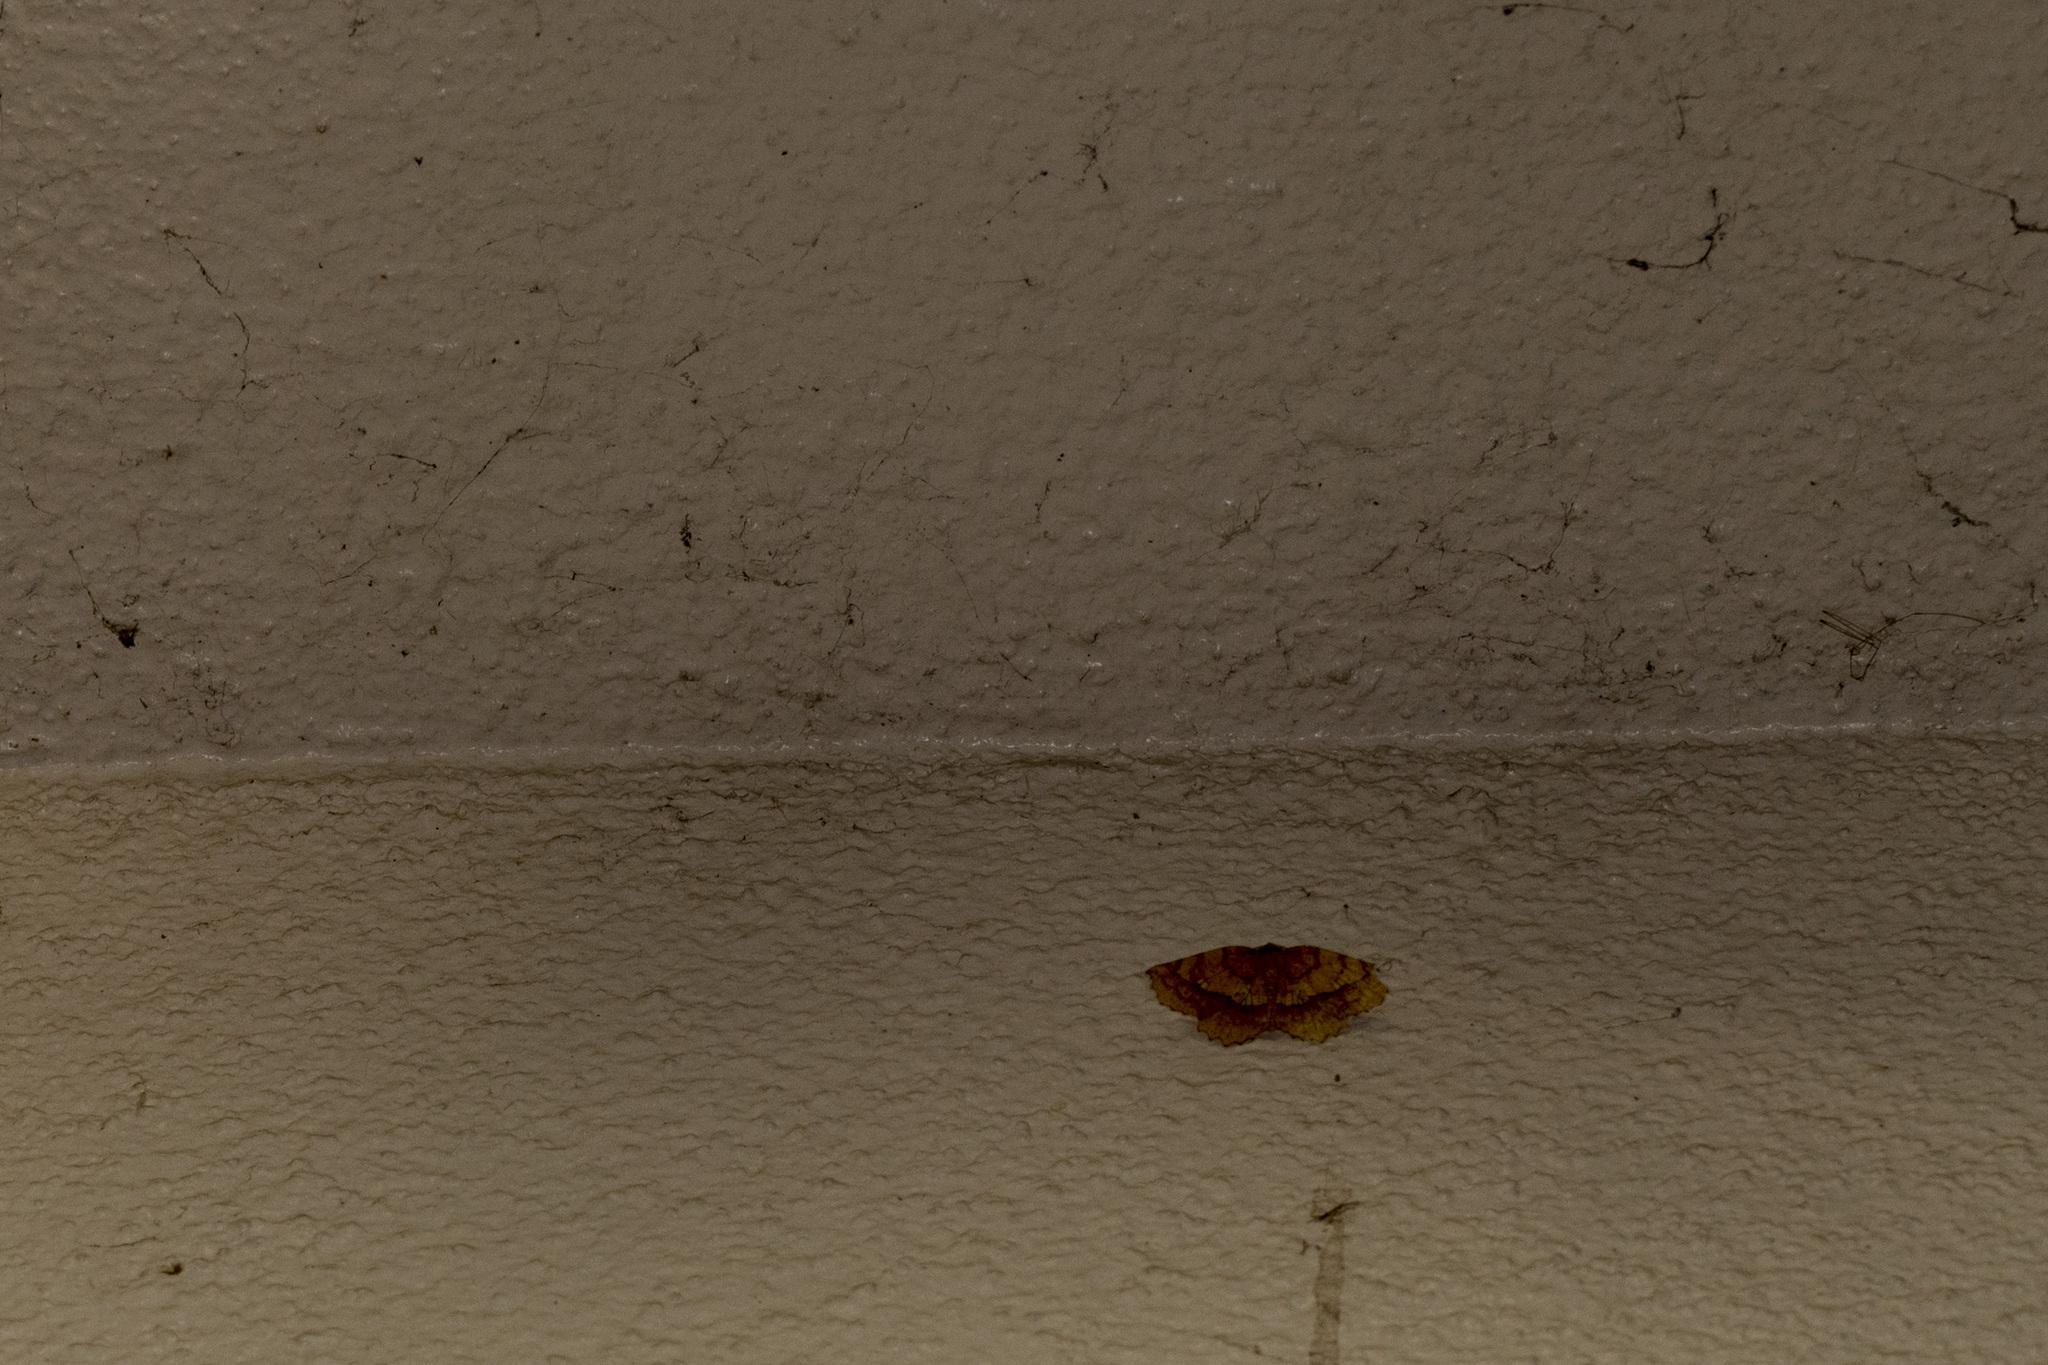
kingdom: Animalia
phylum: Arthropoda
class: Insecta
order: Lepidoptera
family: Geometridae
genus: Garaeus
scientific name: Garaeus specularis
